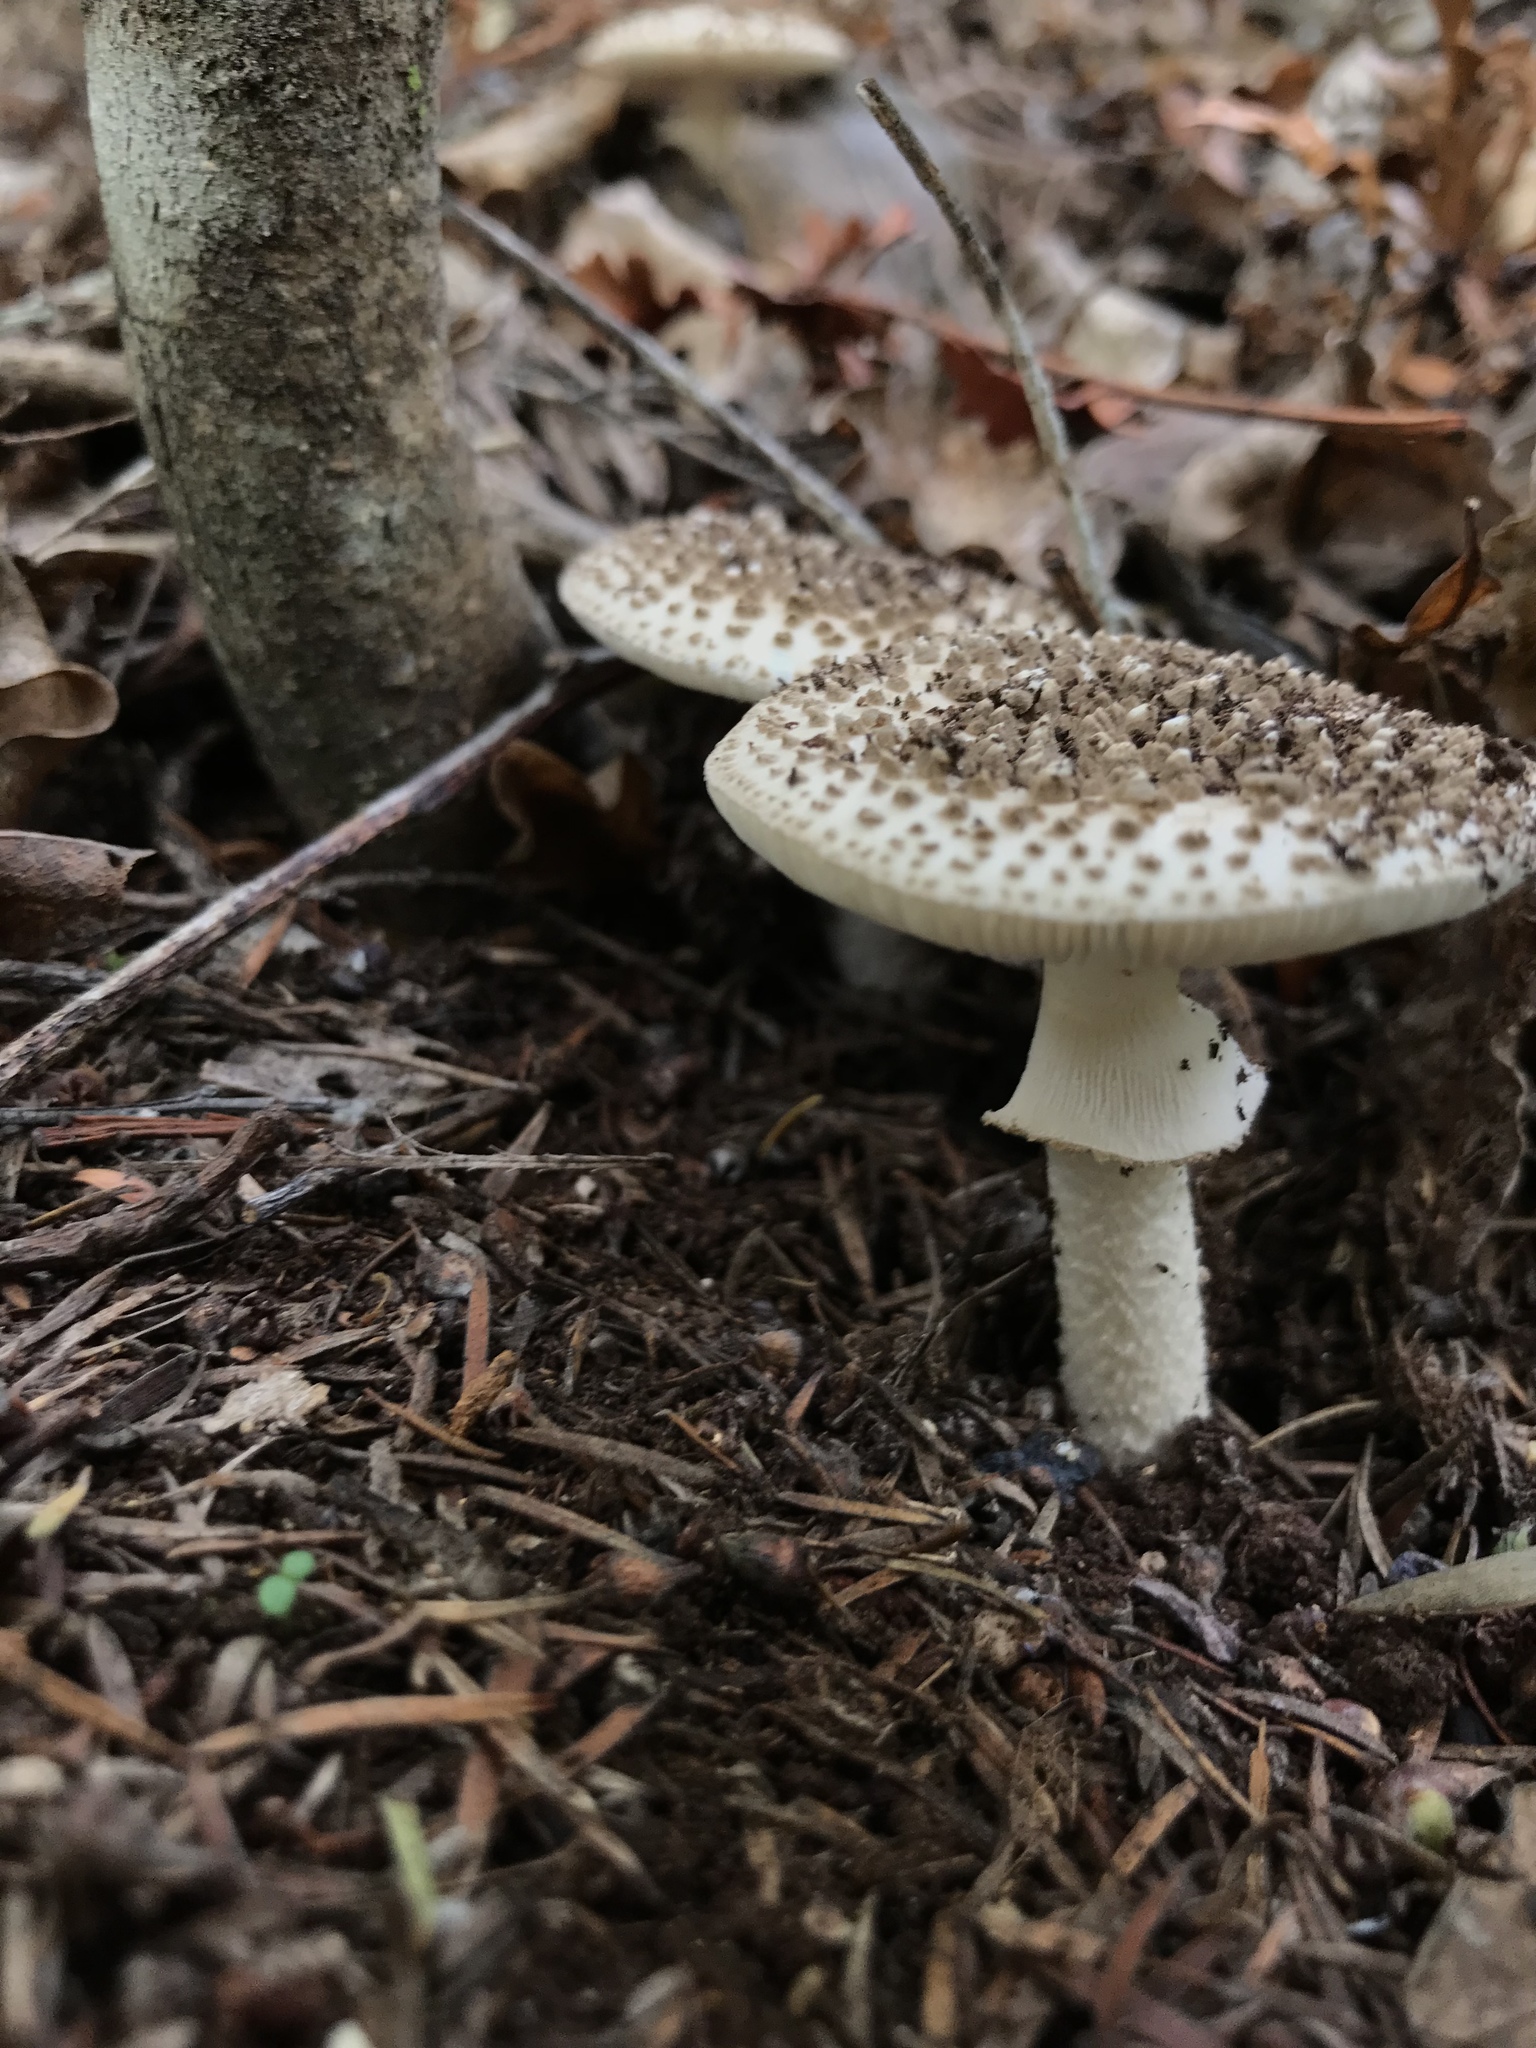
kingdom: Fungi
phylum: Basidiomycota
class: Agaricomycetes
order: Agaricales
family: Amanitaceae
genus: Amanita
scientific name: Amanita australis
